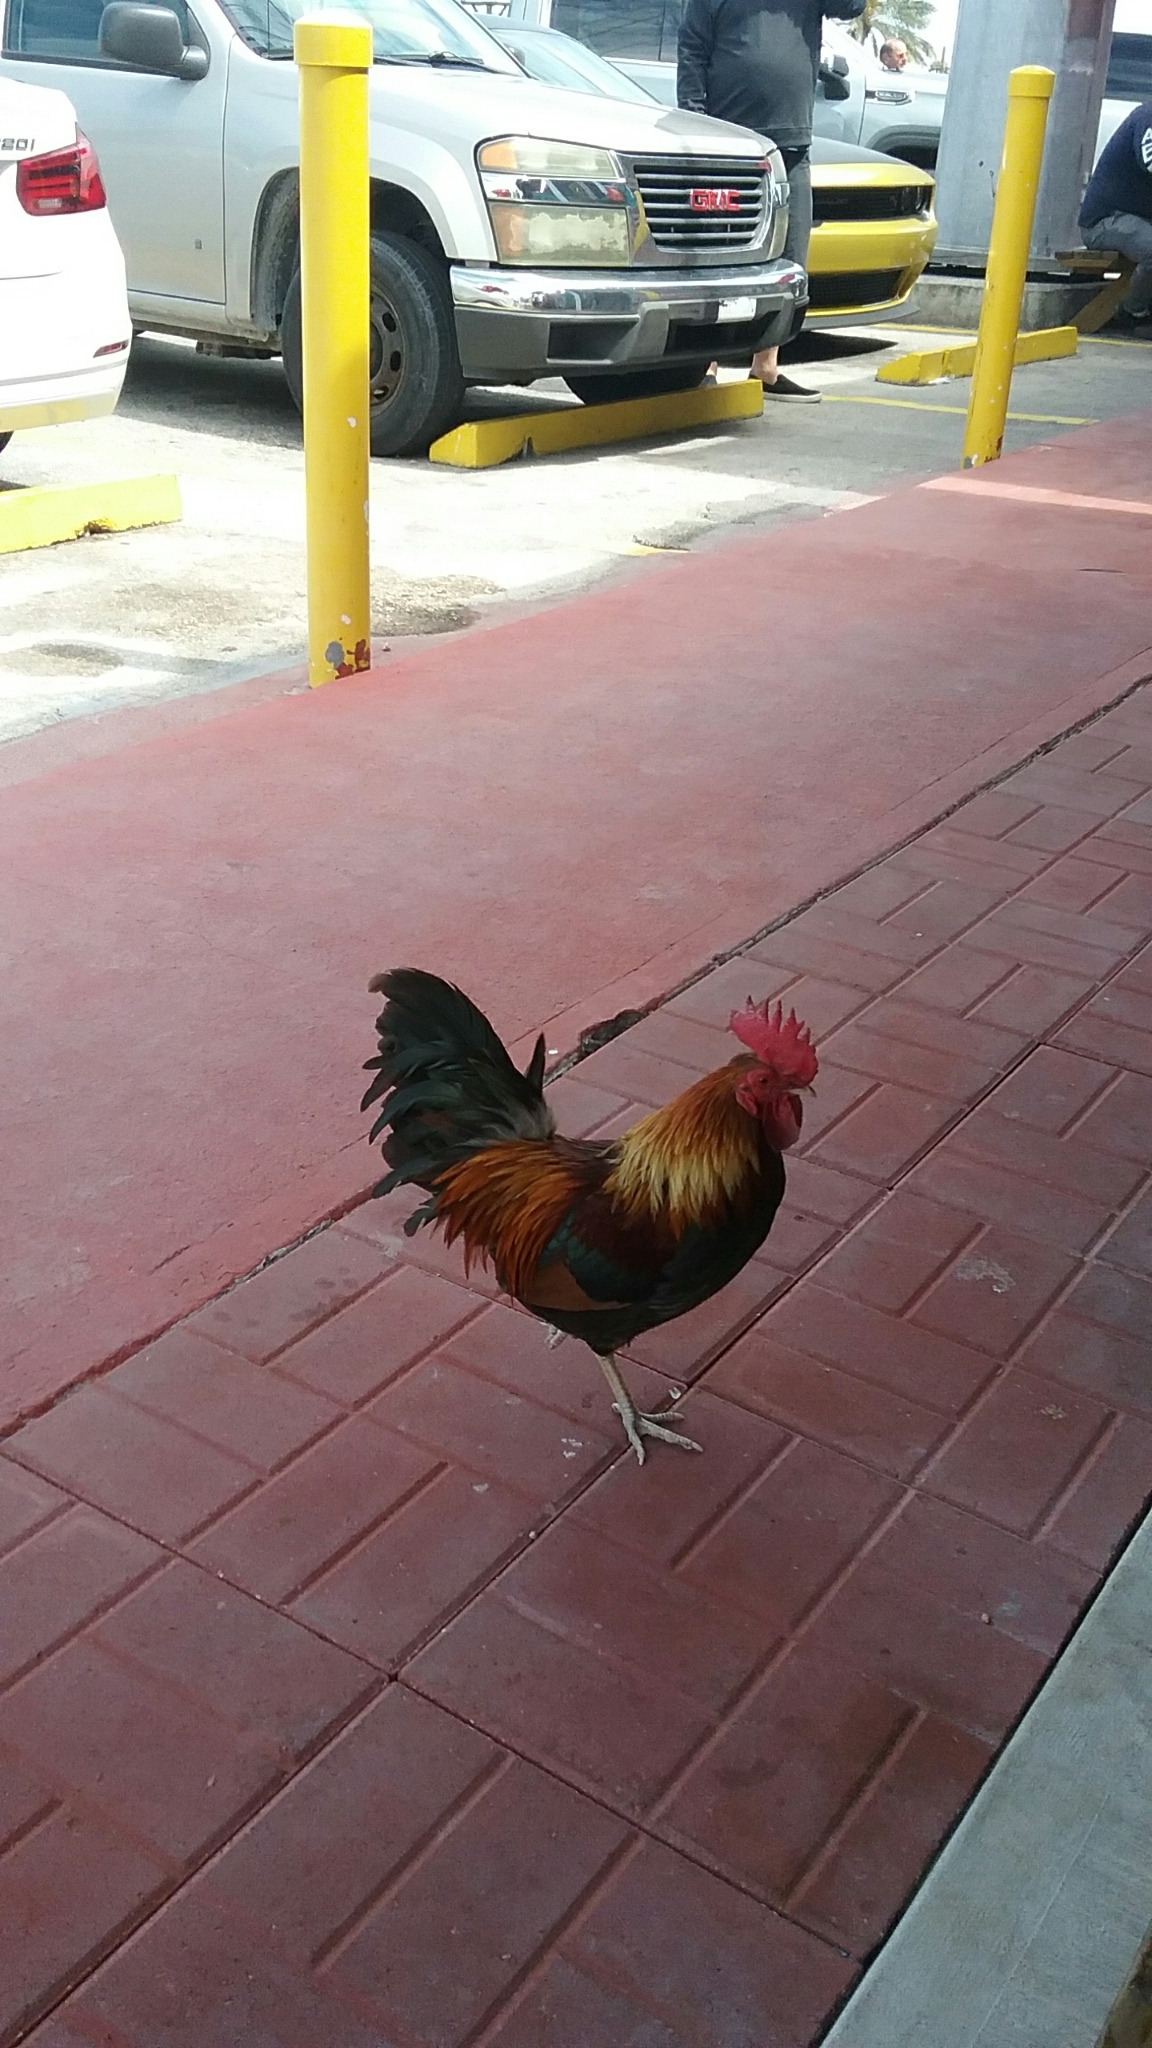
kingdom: Animalia
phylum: Chordata
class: Aves
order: Galliformes
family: Phasianidae
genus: Gallus
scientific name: Gallus gallus
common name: Red junglefowl
